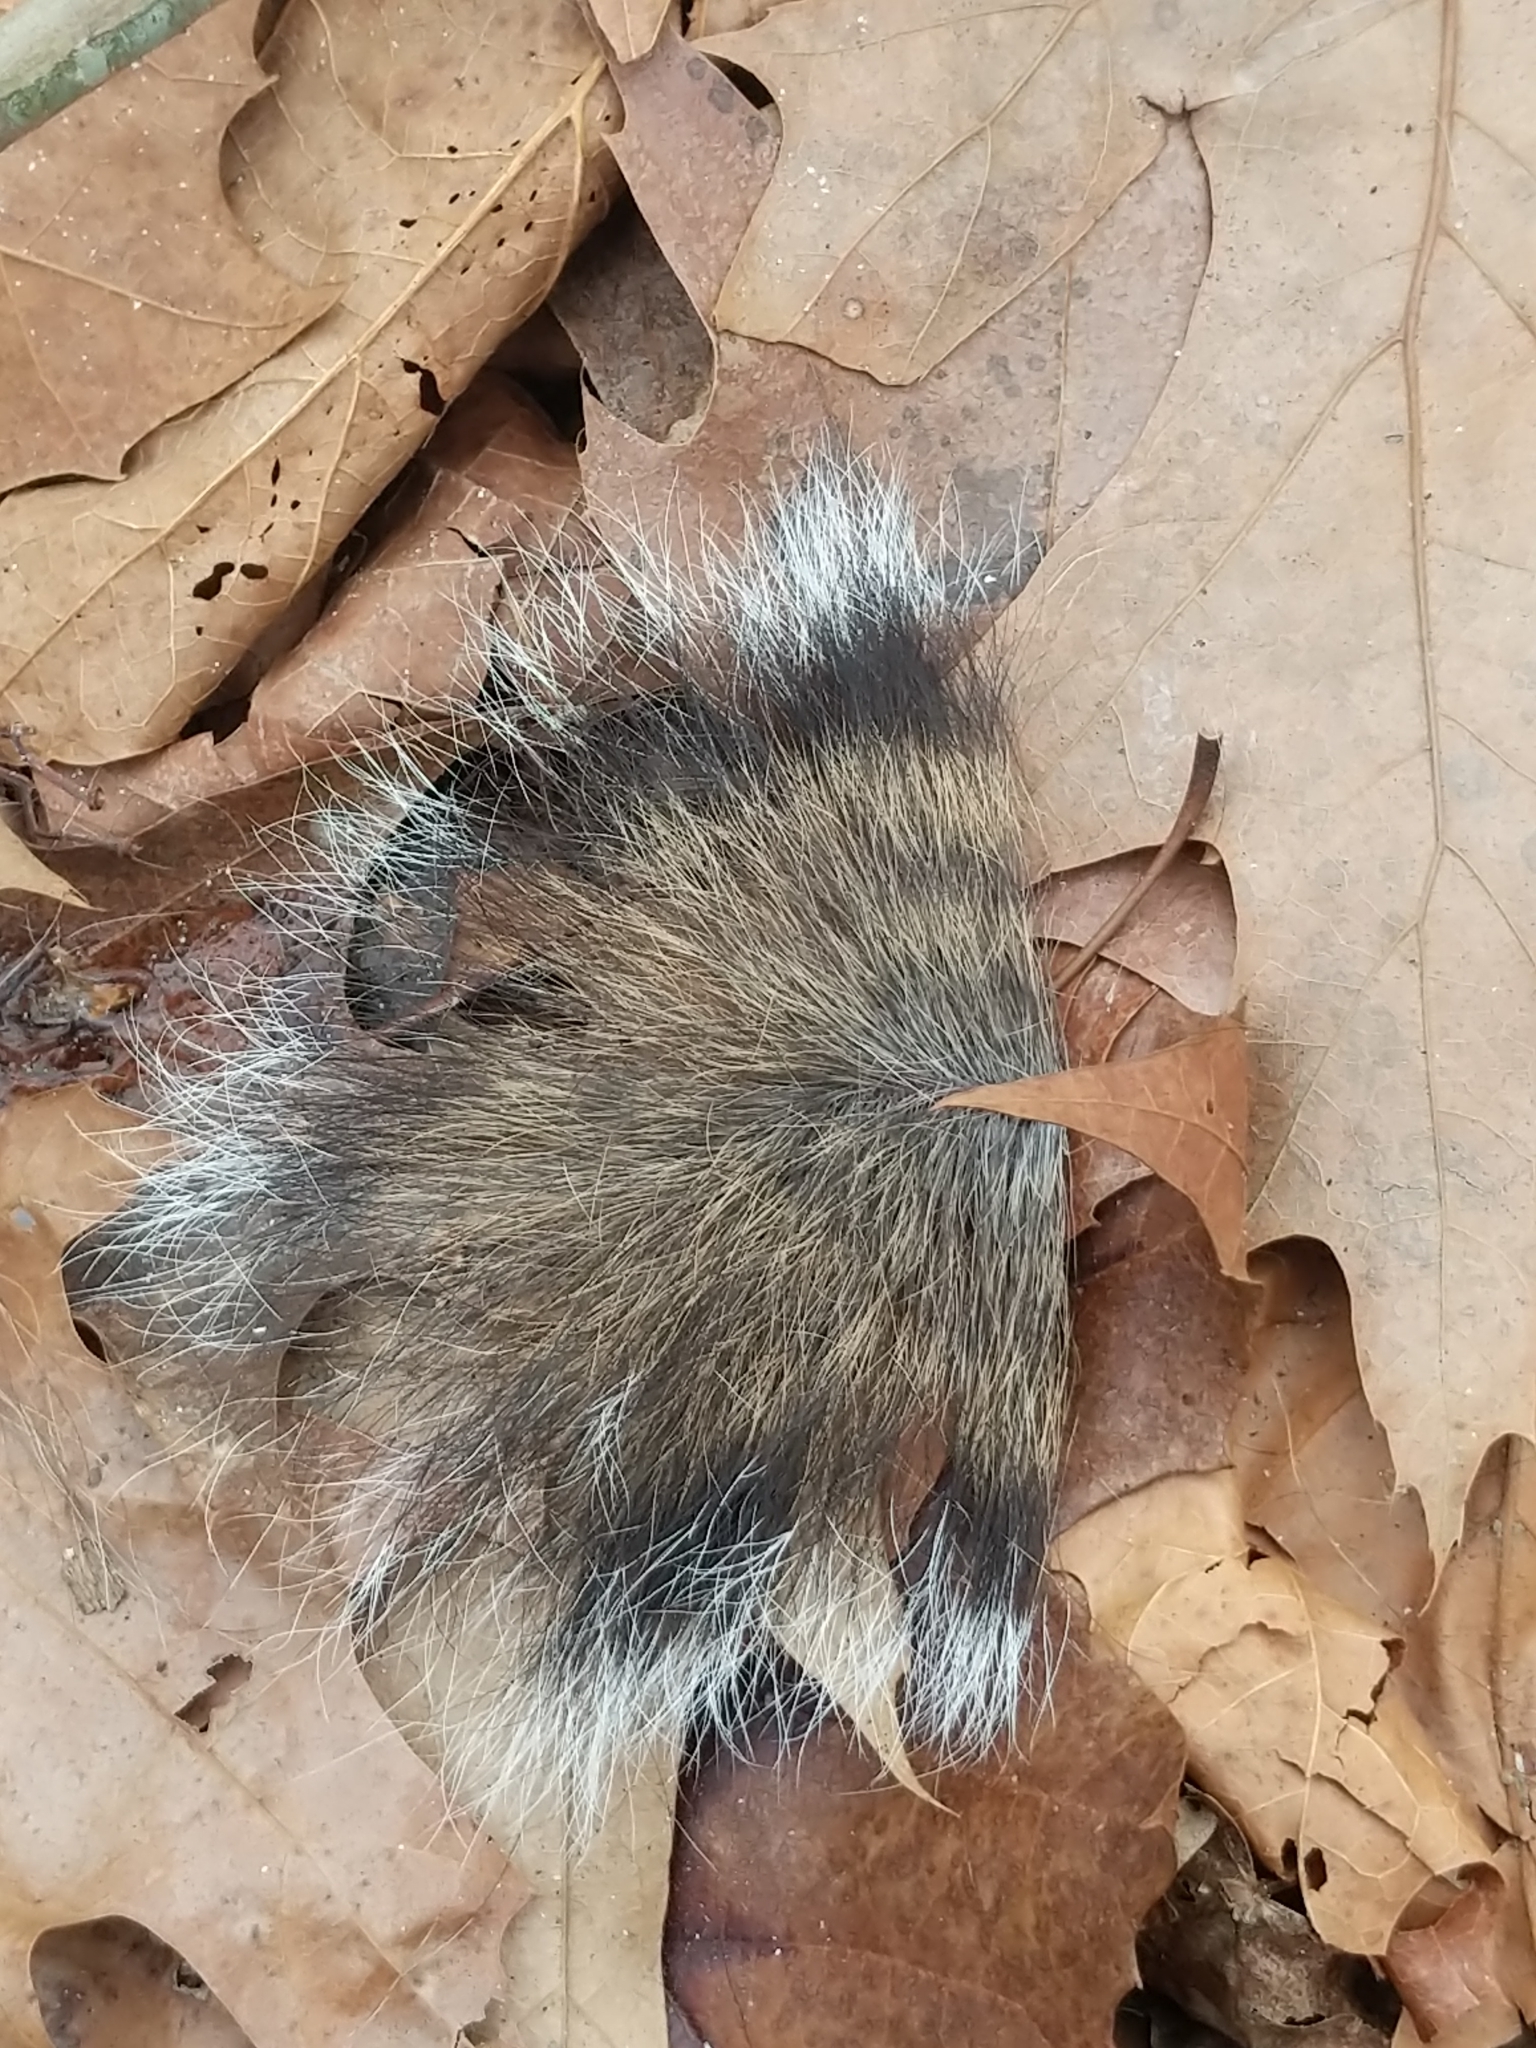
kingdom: Animalia
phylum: Chordata
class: Mammalia
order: Rodentia
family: Sciuridae
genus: Sciurus
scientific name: Sciurus carolinensis
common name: Eastern gray squirrel
